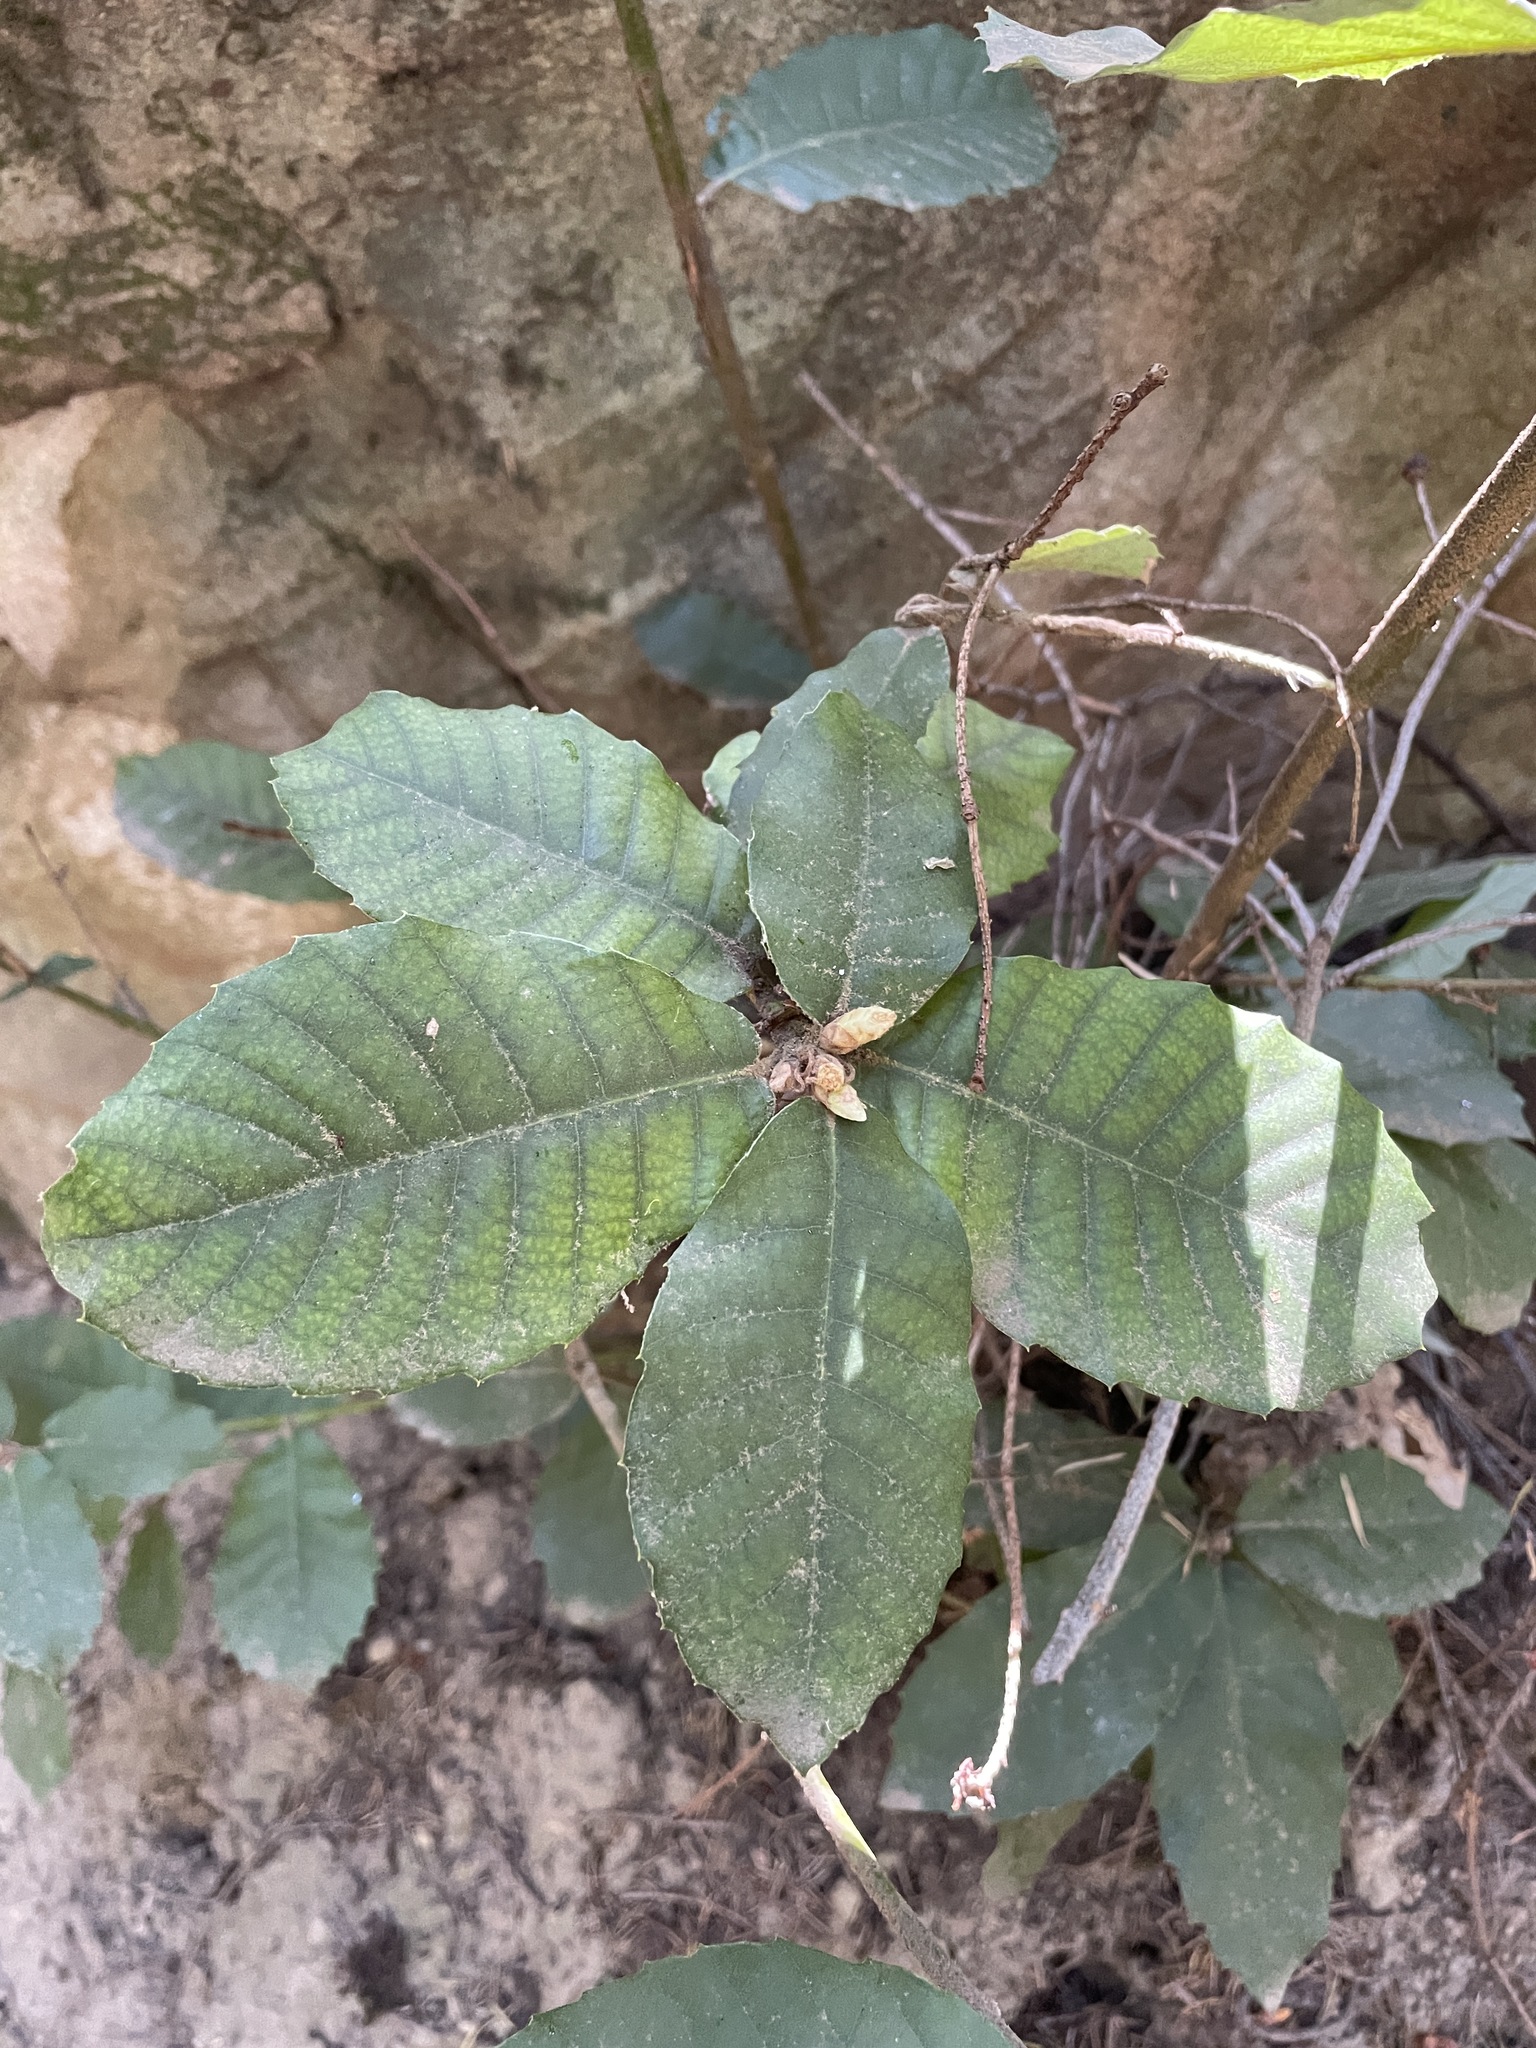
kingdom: Plantae
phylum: Tracheophyta
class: Magnoliopsida
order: Fagales
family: Fagaceae
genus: Notholithocarpus
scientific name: Notholithocarpus densiflorus
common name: Tan bark oak
